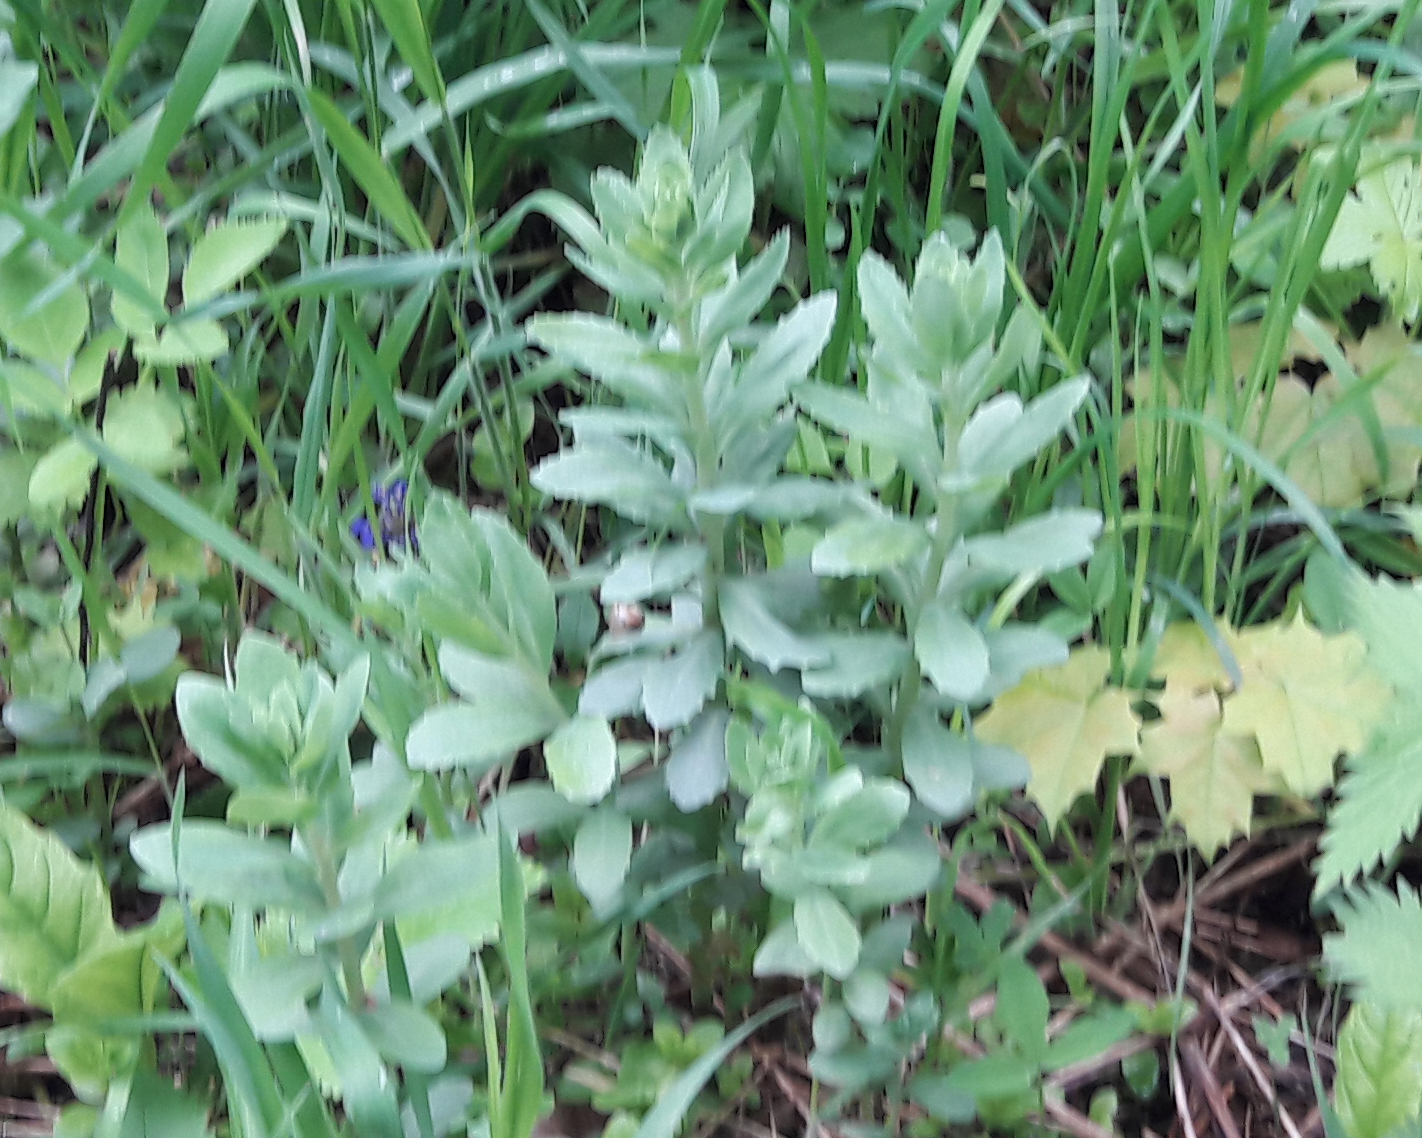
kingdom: Plantae
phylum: Tracheophyta
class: Magnoliopsida
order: Saxifragales
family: Crassulaceae
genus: Hylotelephium
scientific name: Hylotelephium telephium
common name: Live-forever
